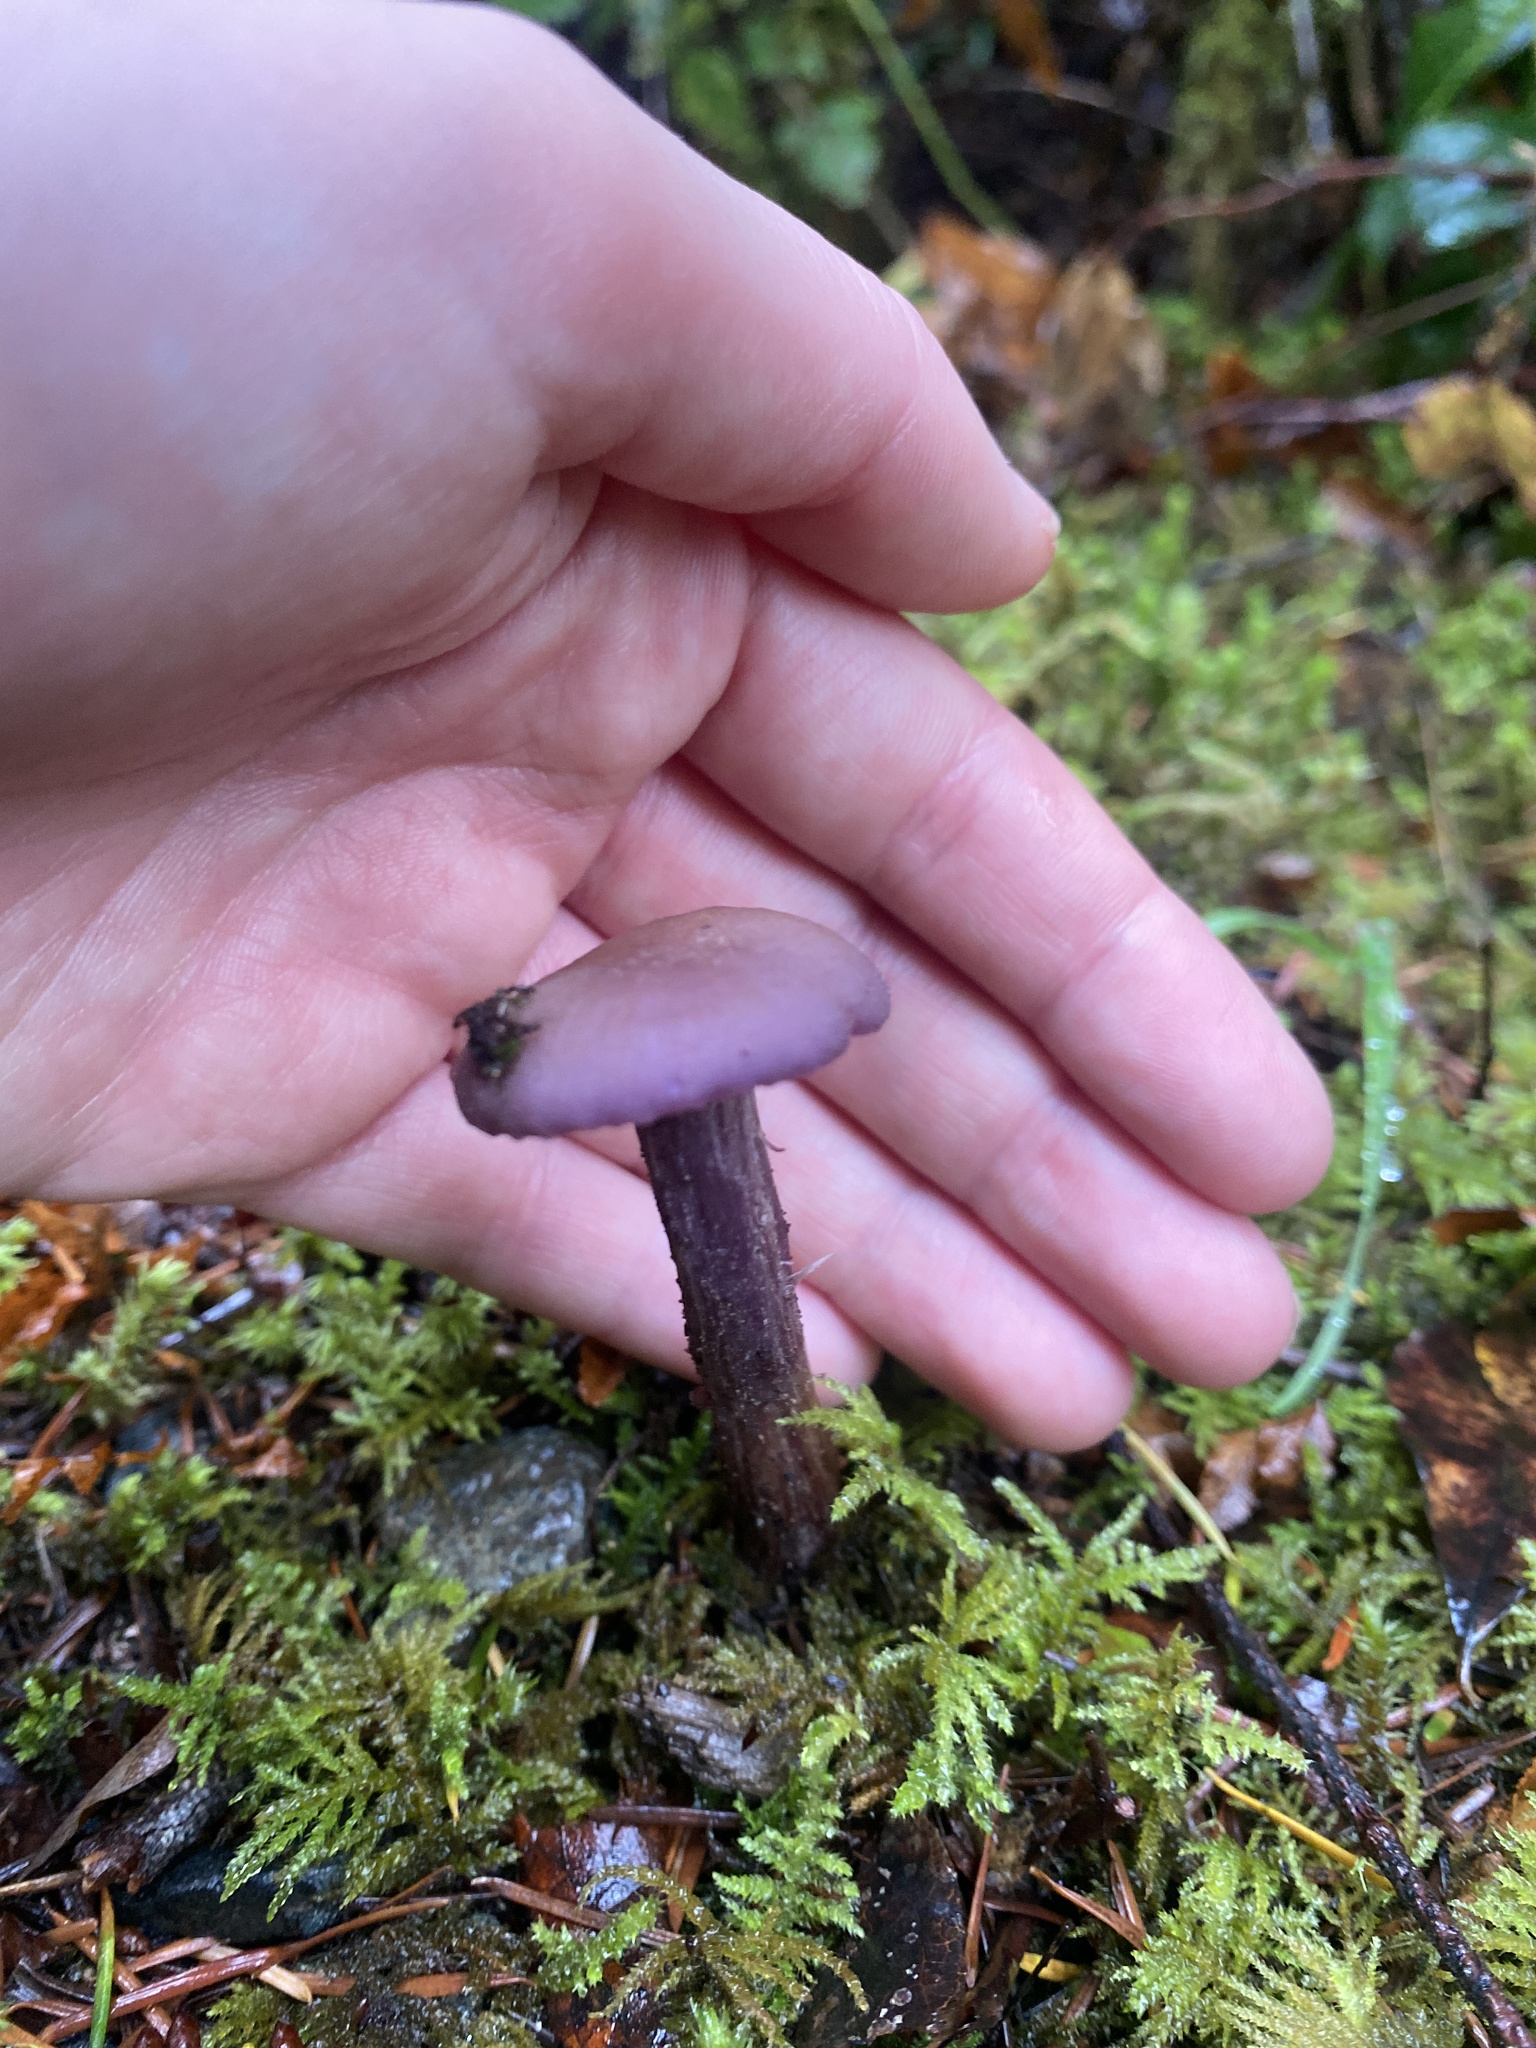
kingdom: Fungi
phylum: Basidiomycota
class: Agaricomycetes
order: Agaricales
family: Hydnangiaceae
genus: Laccaria
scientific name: Laccaria amethysteo-occidentalis
